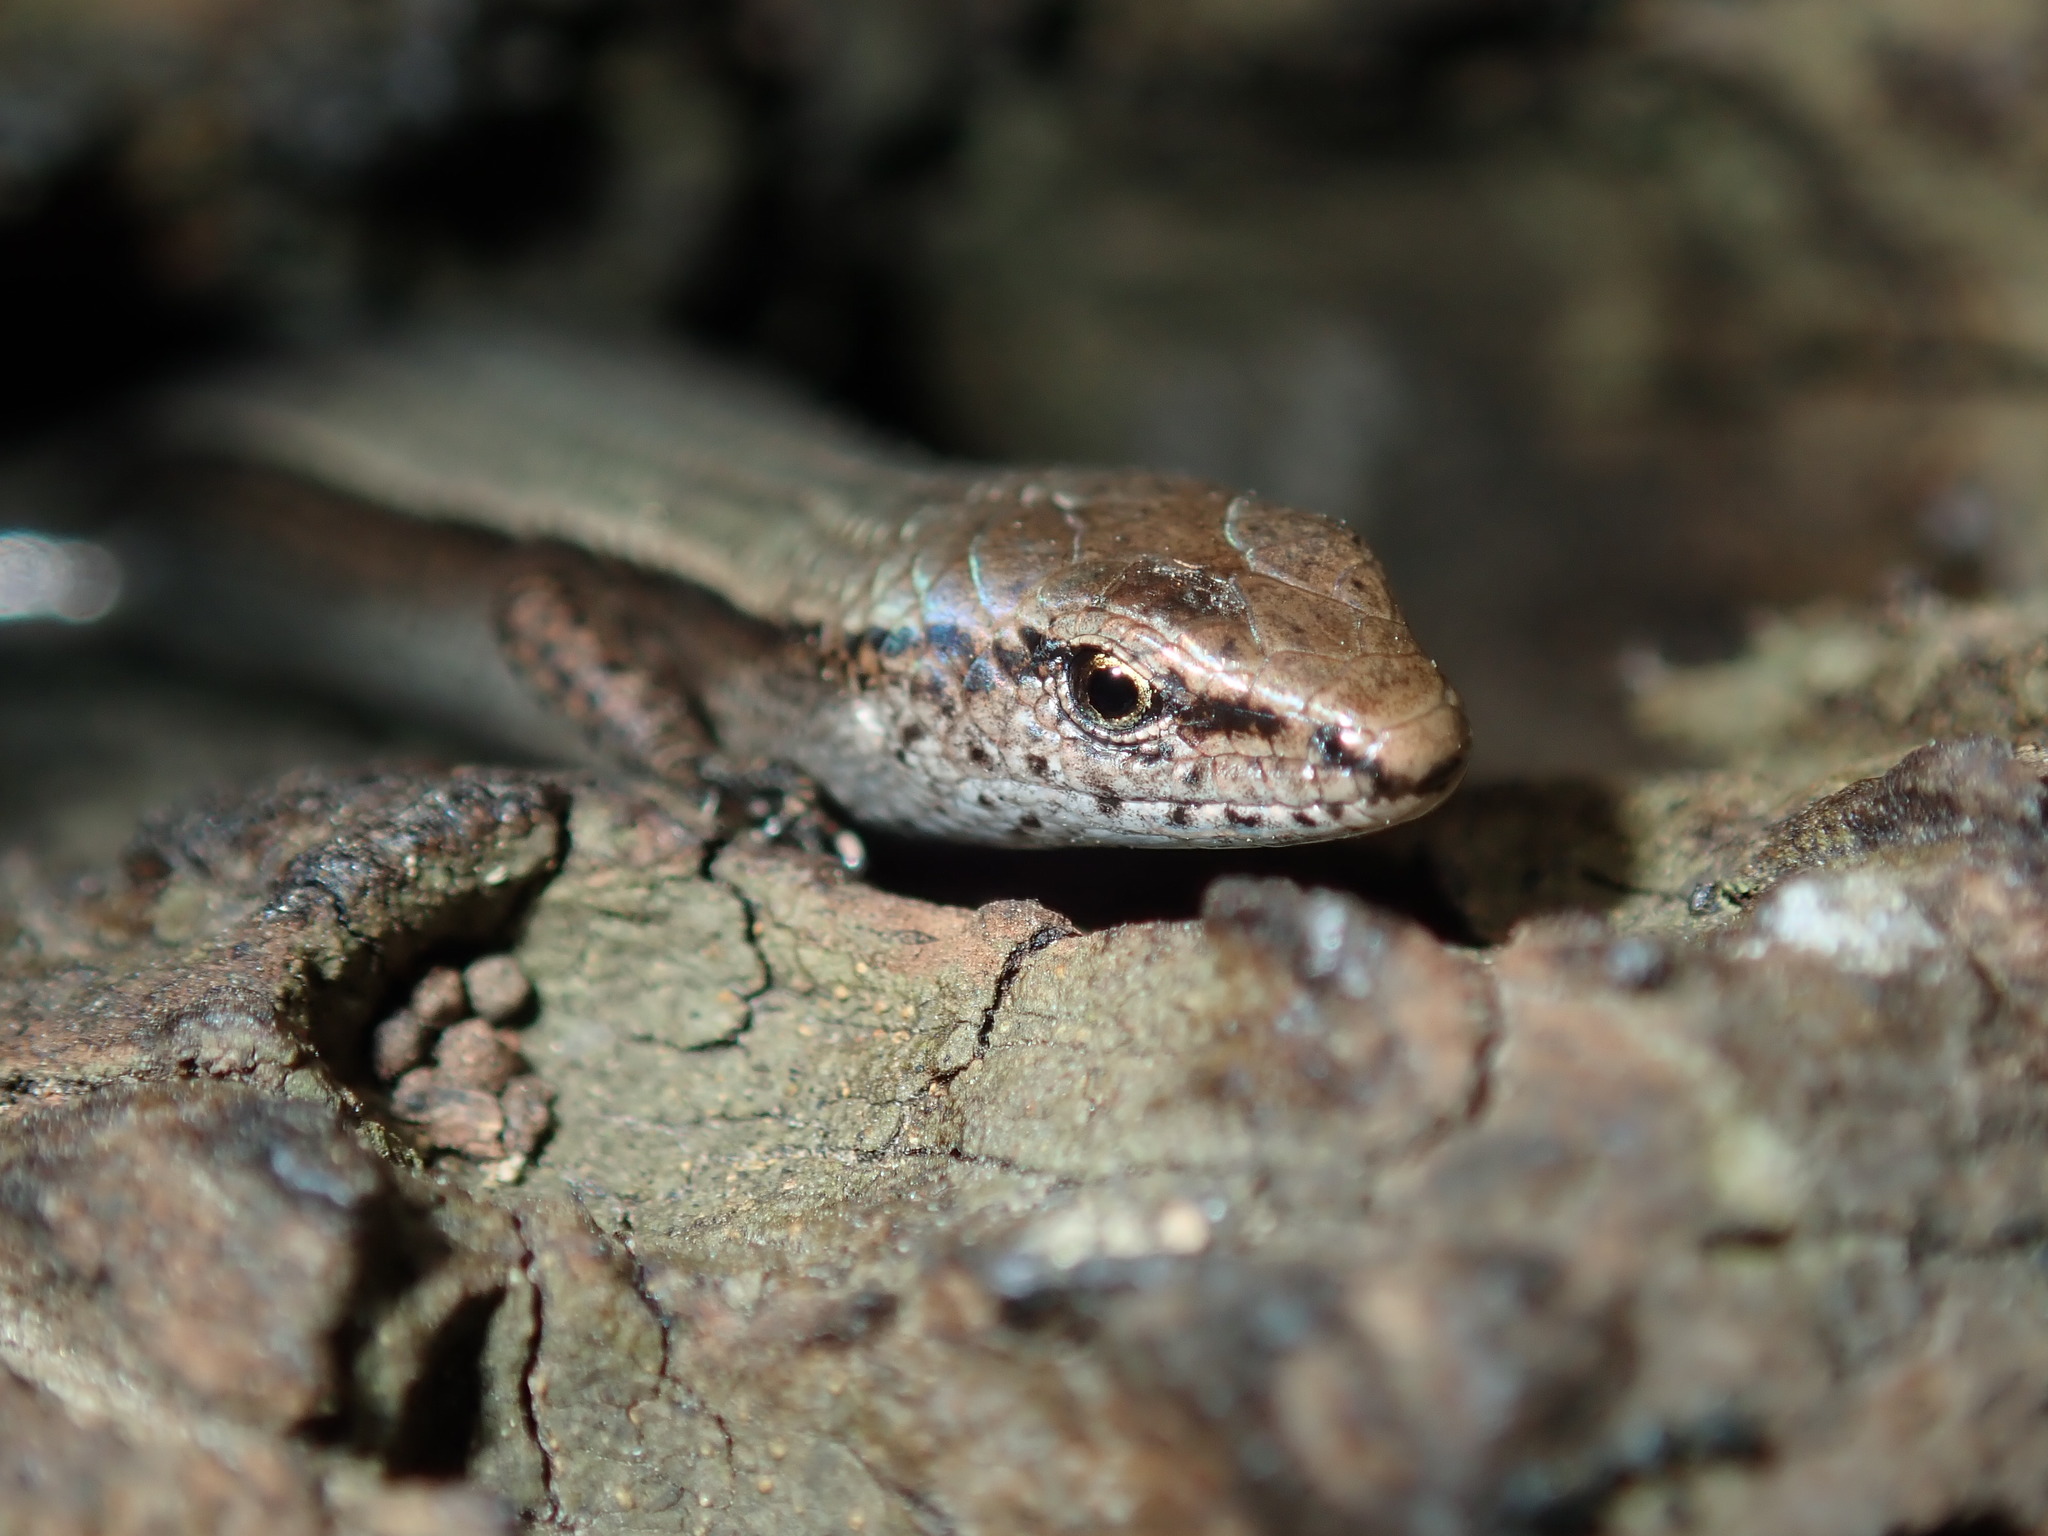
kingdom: Animalia
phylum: Chordata
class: Squamata
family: Scincidae
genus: Lampropholis
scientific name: Lampropholis delicata
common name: Plague skink
